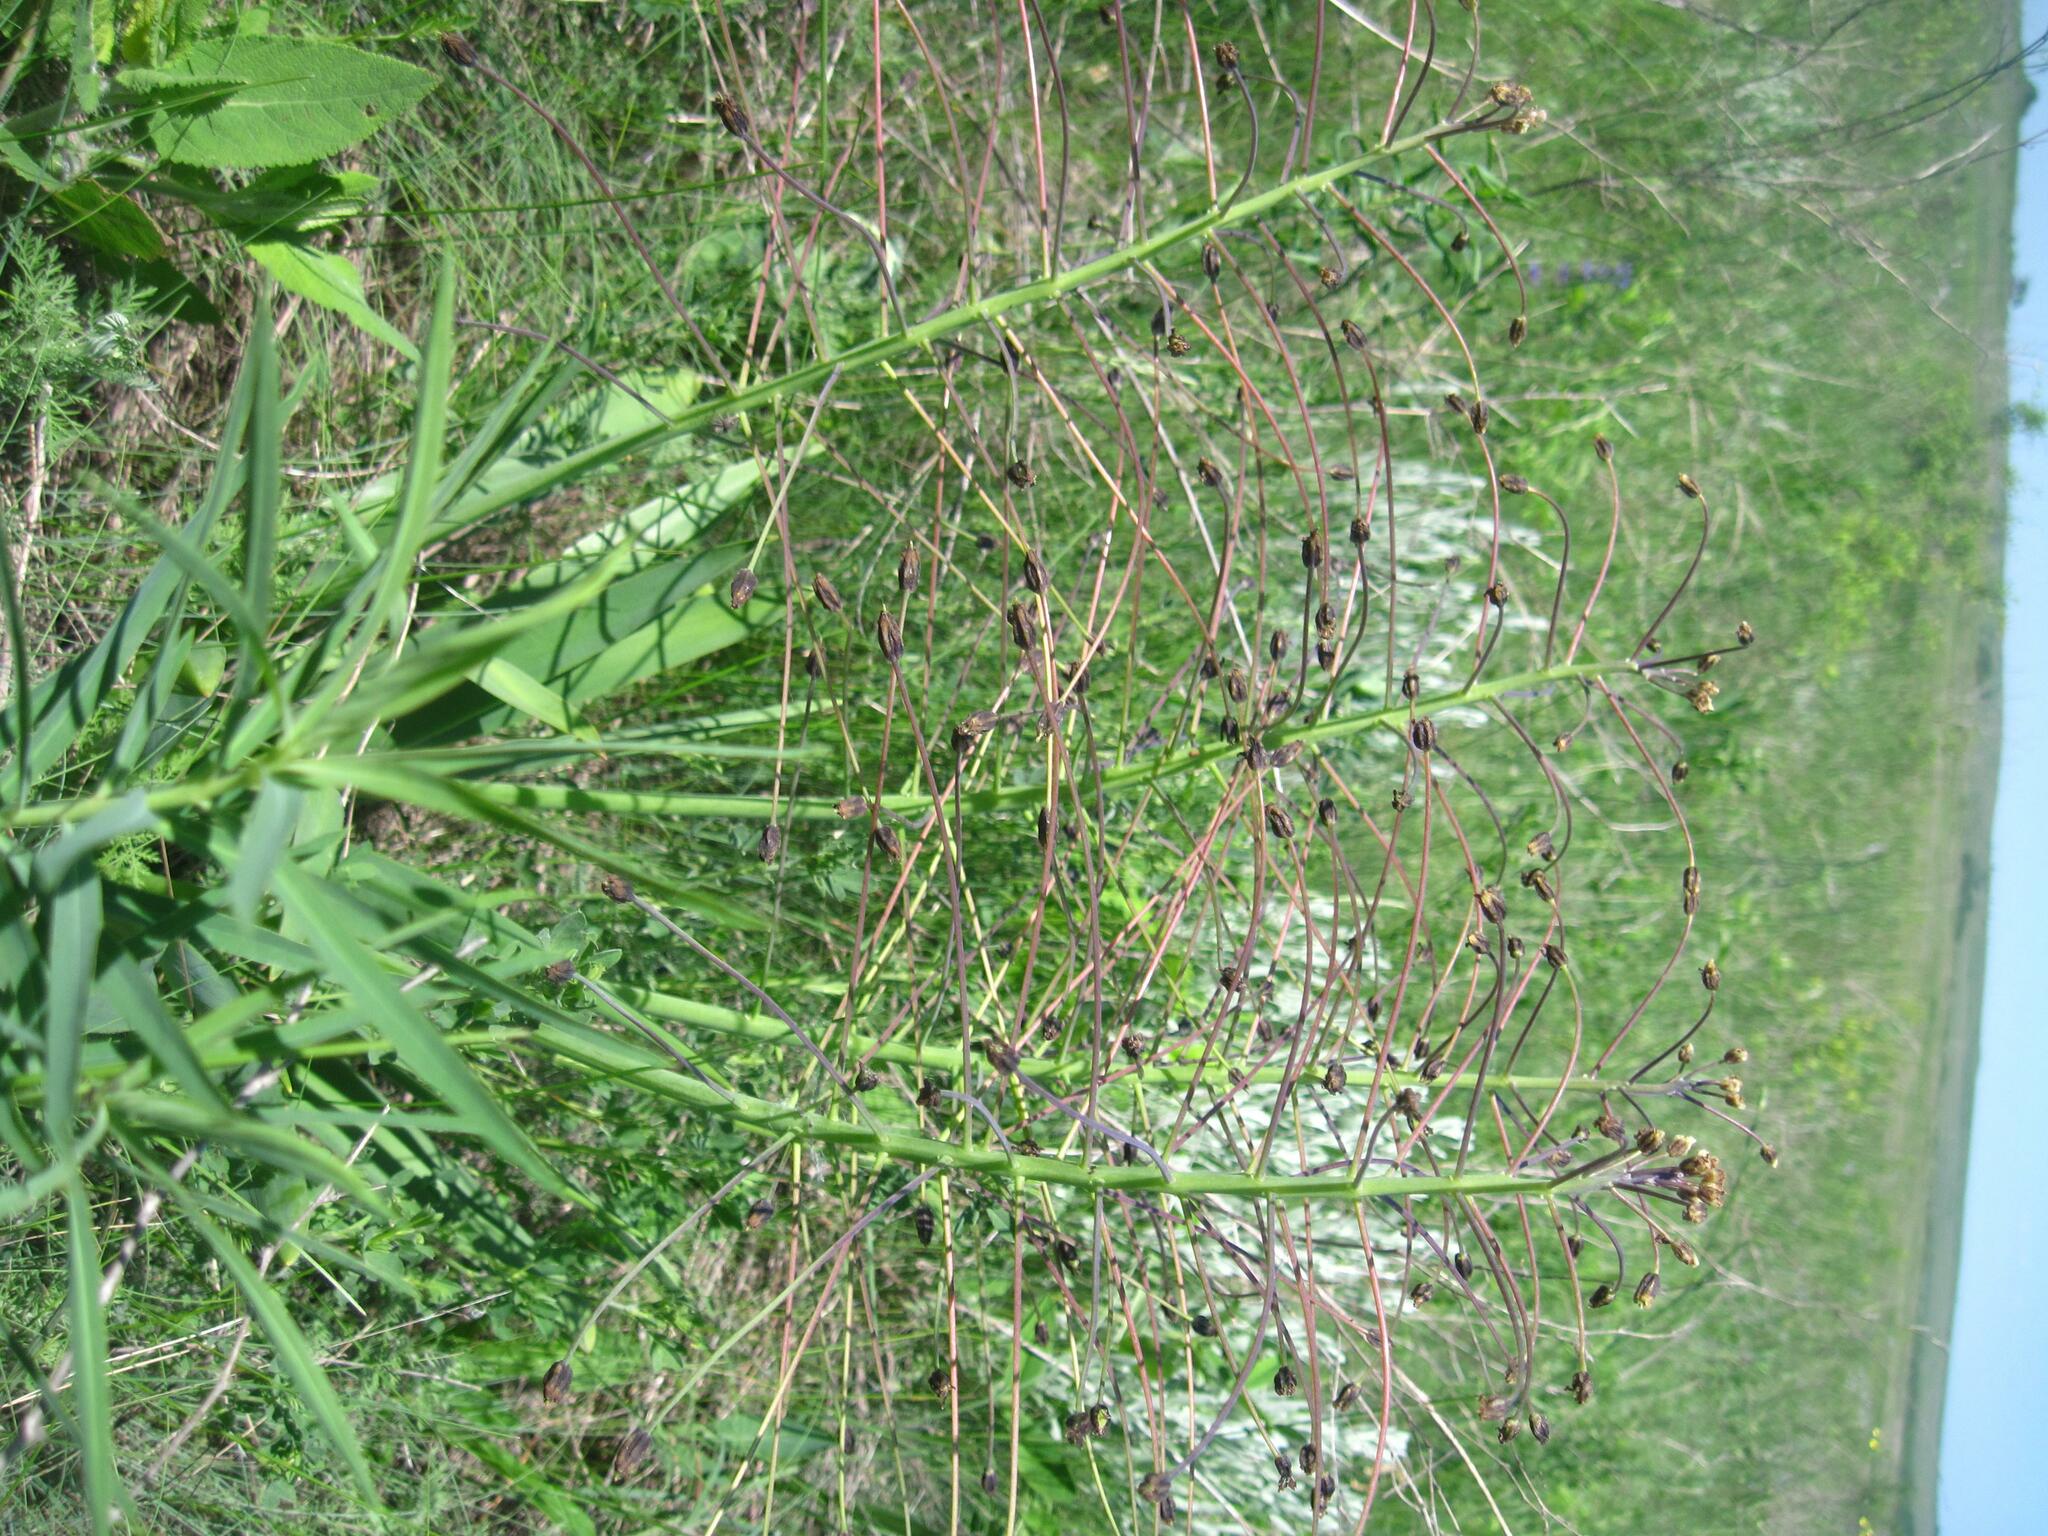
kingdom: Plantae
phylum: Tracheophyta
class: Liliopsida
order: Asparagales
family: Asparagaceae
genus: Bellevalia
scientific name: Bellevalia speciosa
